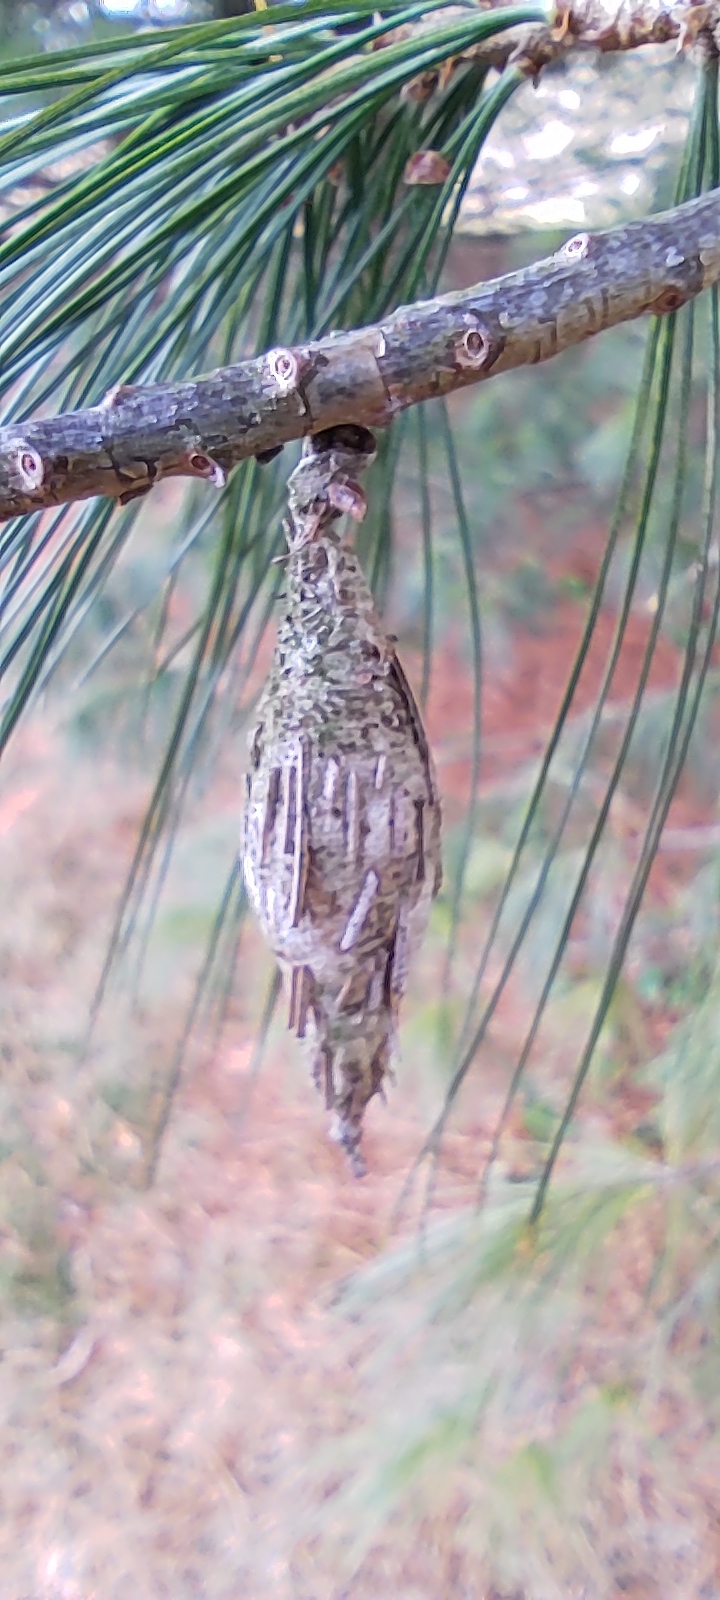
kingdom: Animalia
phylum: Arthropoda
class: Insecta
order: Lepidoptera
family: Psychidae
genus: Thyridopteryx
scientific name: Thyridopteryx ephemeraeformis
